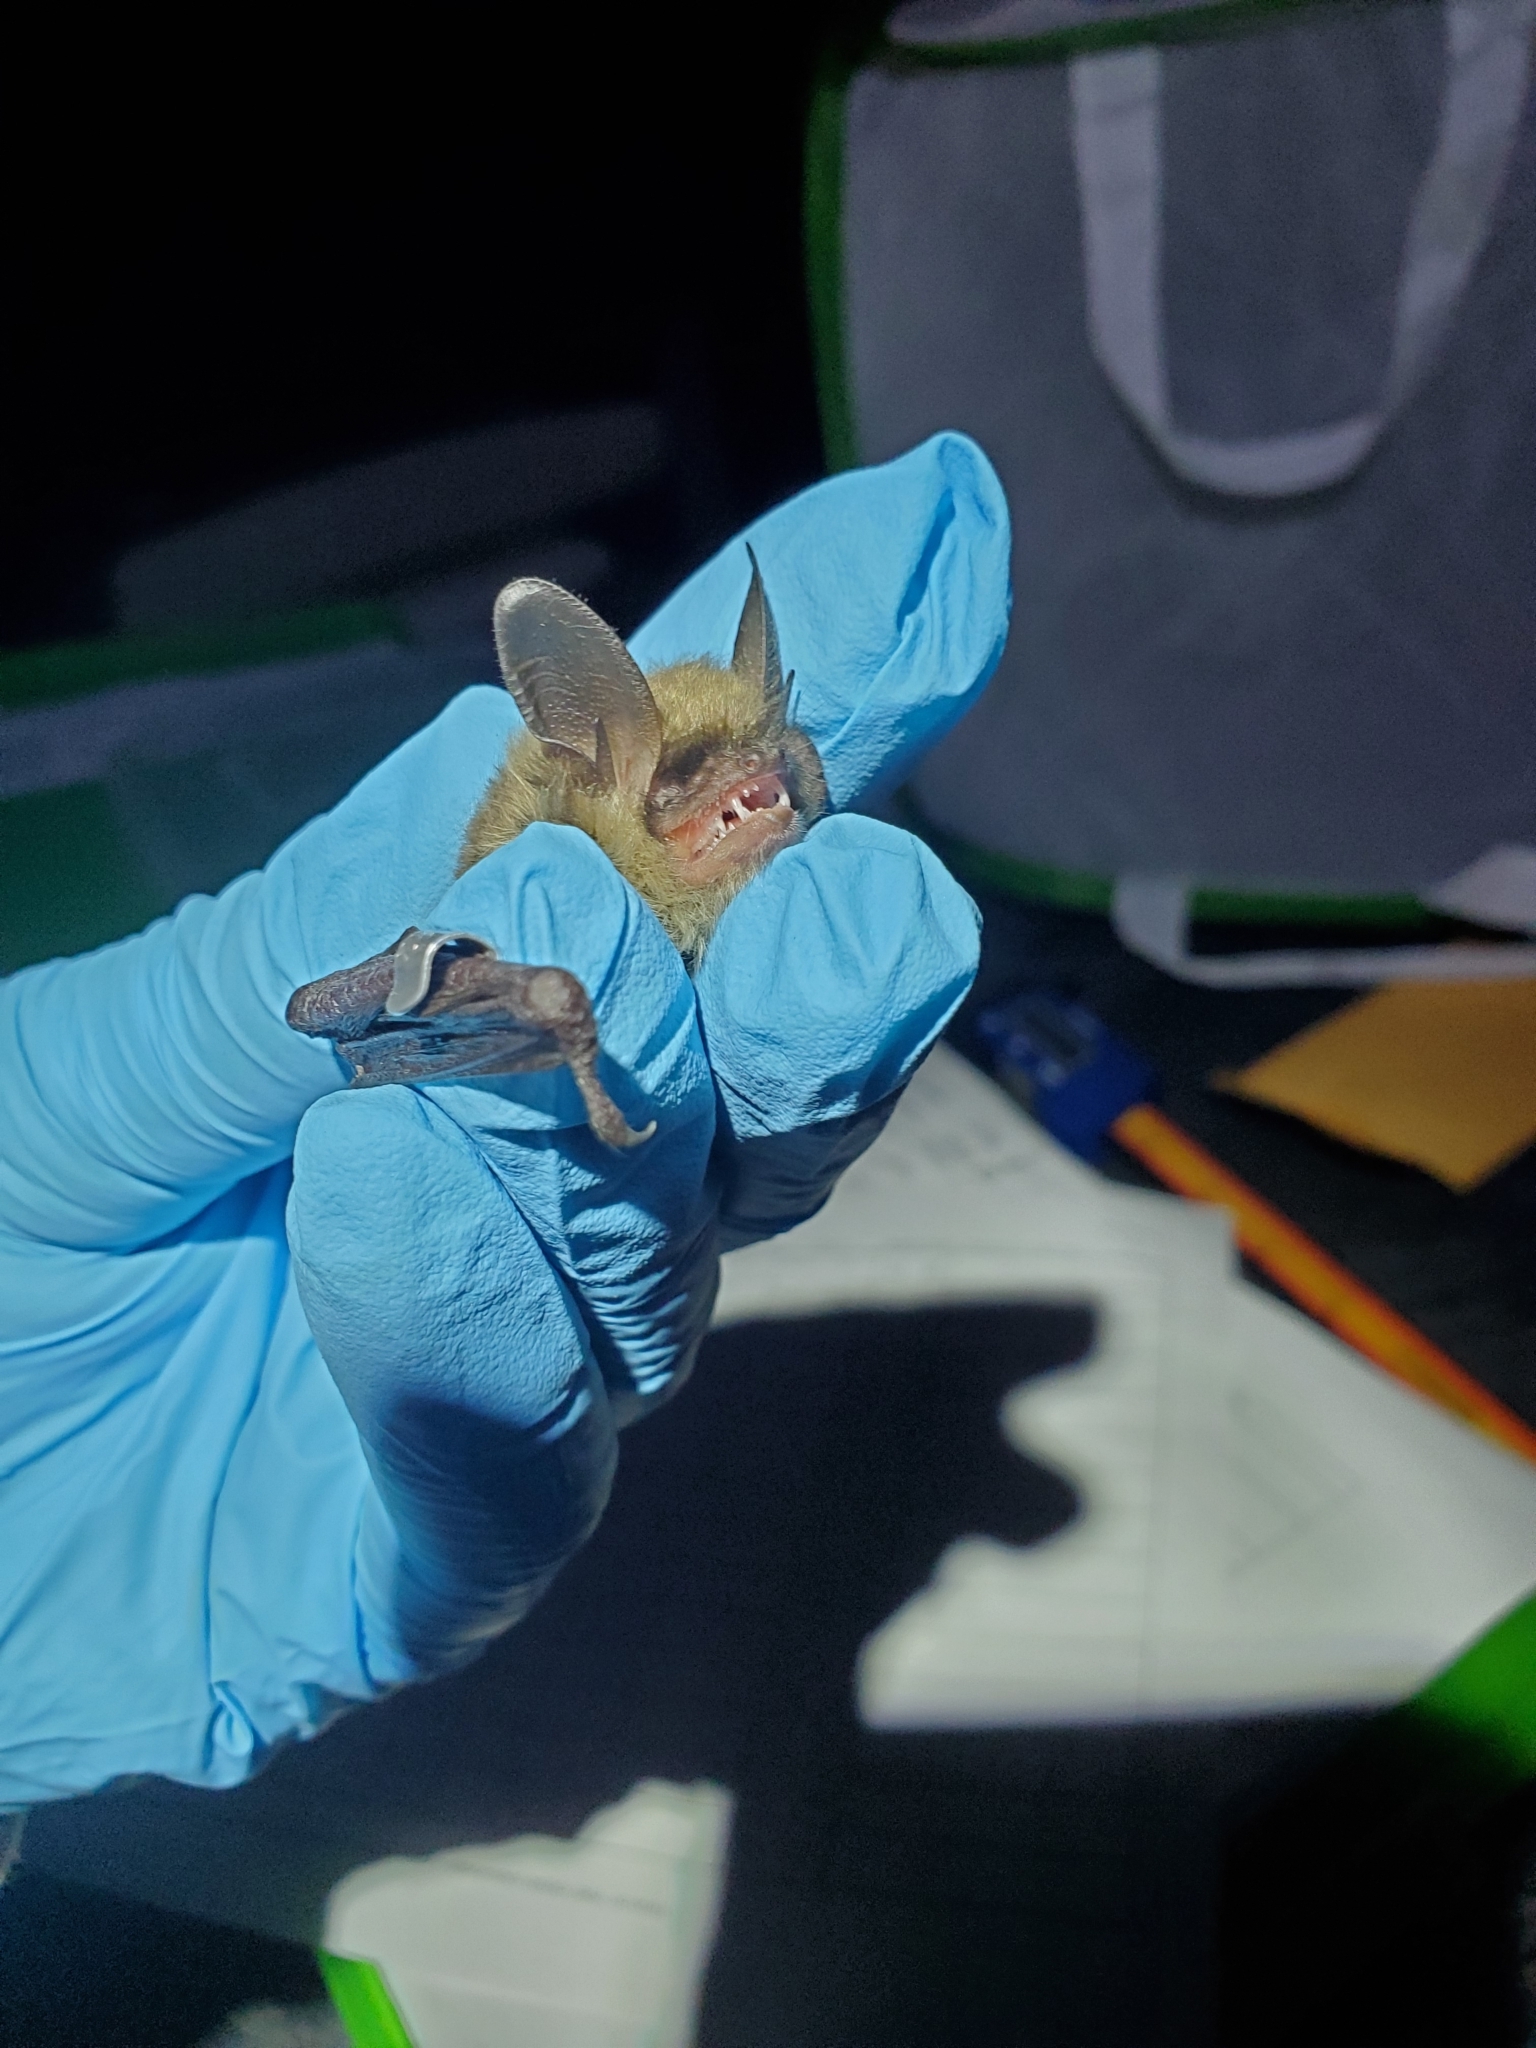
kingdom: Animalia
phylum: Chordata
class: Mammalia
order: Chiroptera
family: Vespertilionidae
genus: Myotis
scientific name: Myotis septentrionalis
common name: Northern myotis
